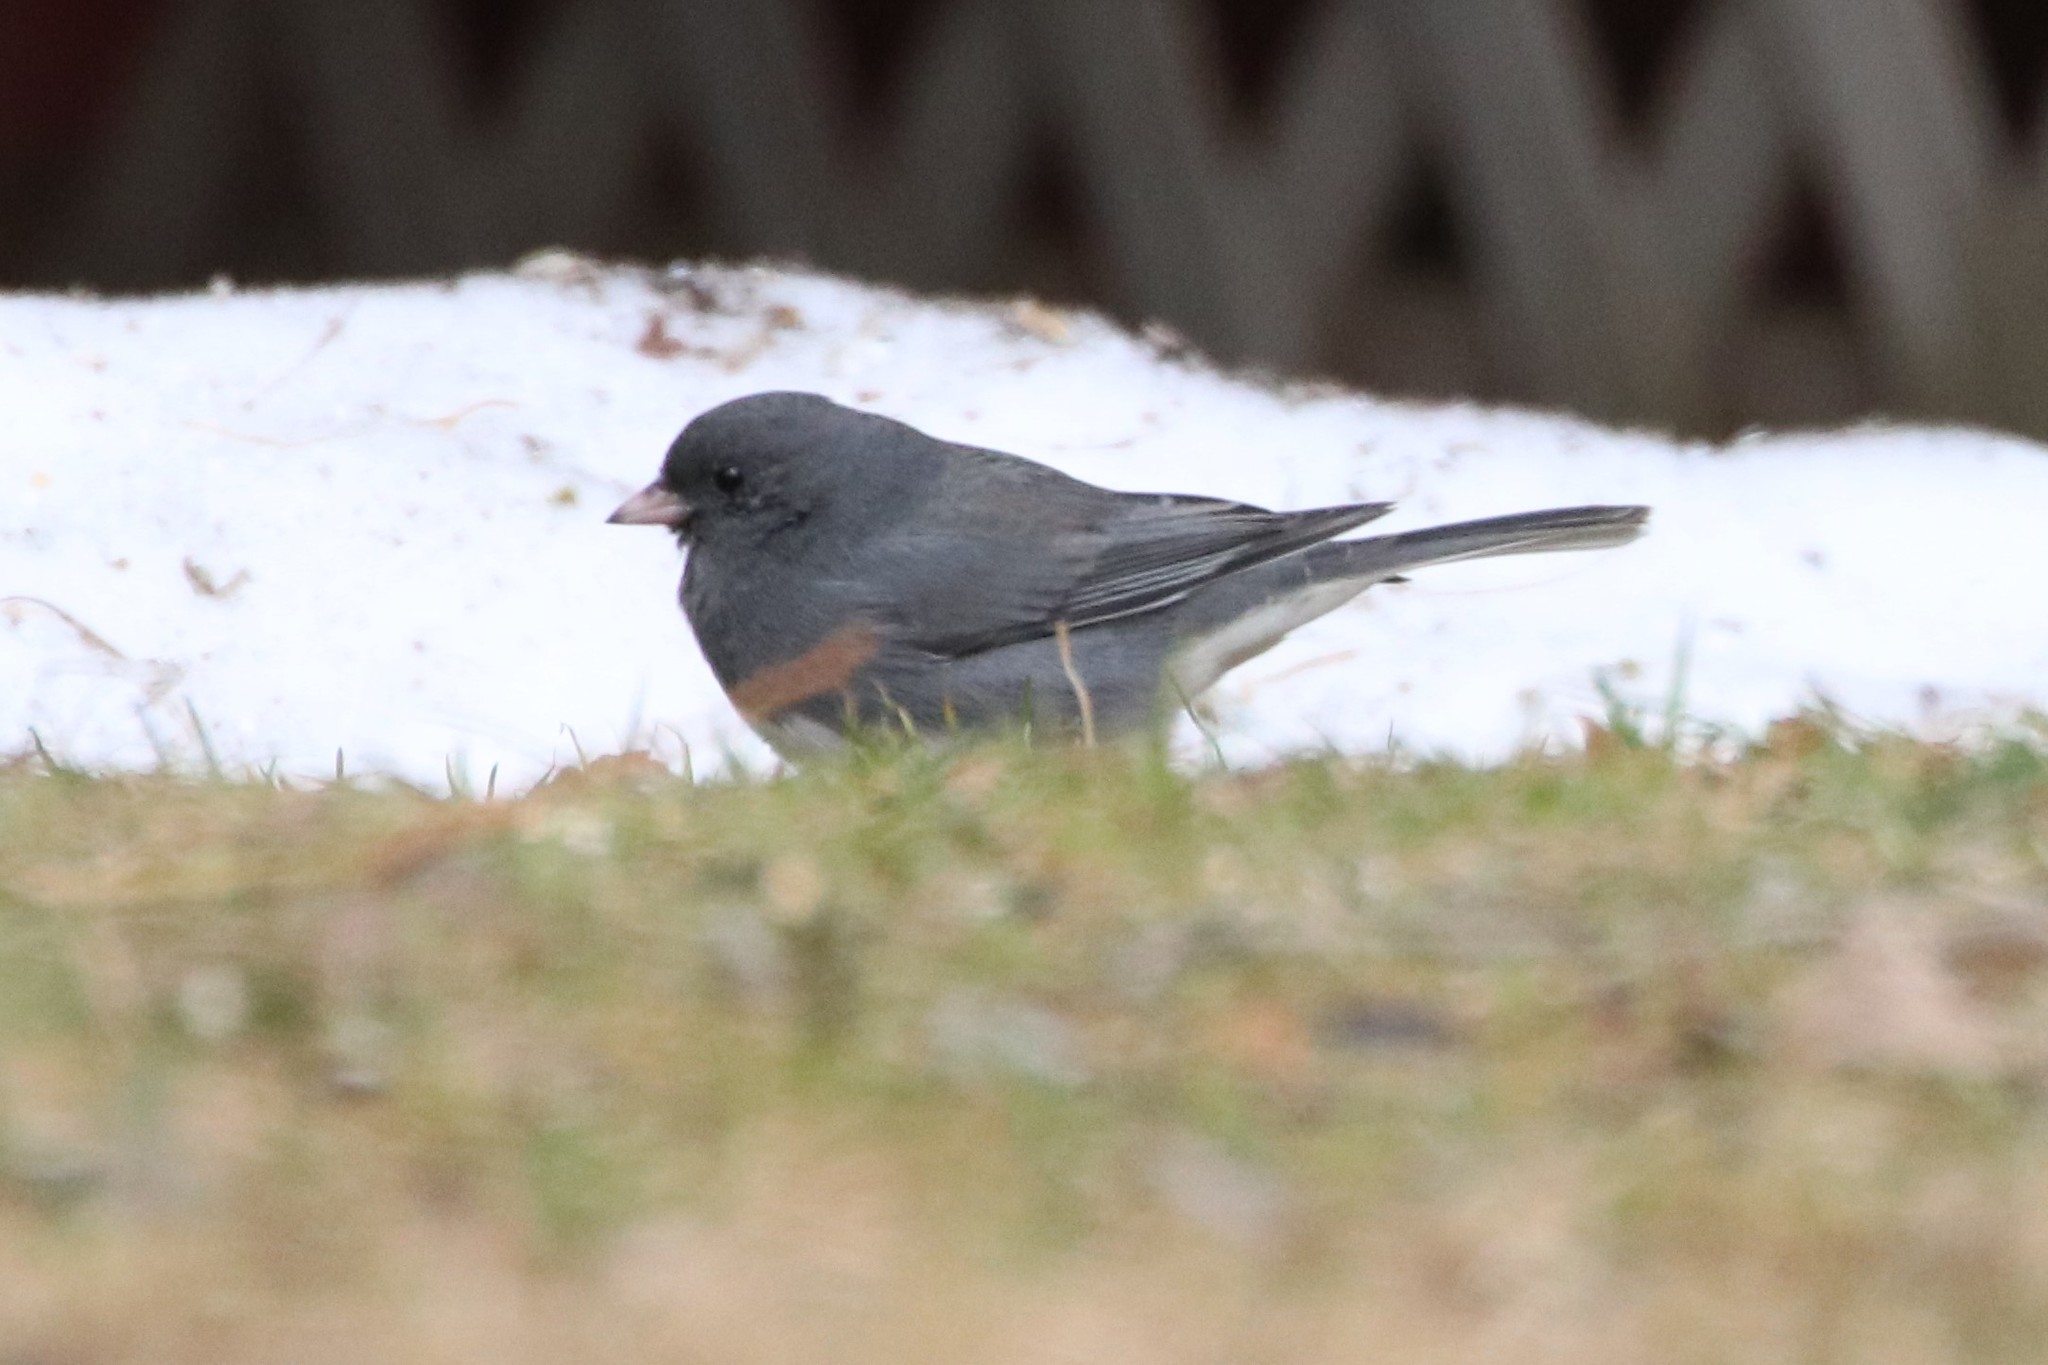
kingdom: Animalia
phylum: Chordata
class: Aves
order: Passeriformes
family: Passerellidae
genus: Junco
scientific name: Junco hyemalis
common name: Dark-eyed junco
